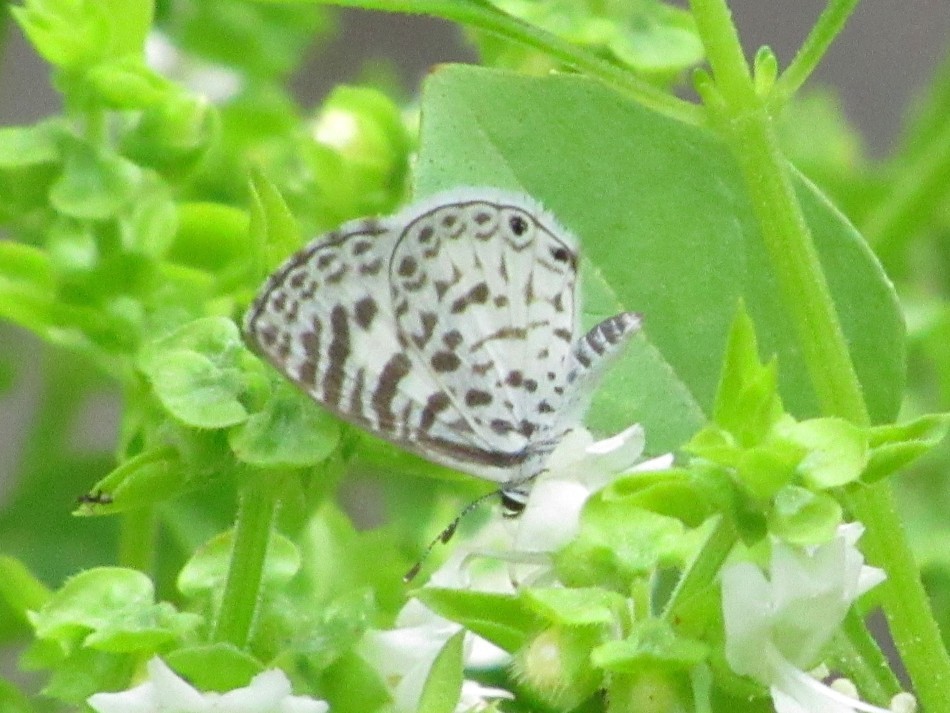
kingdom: Animalia
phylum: Arthropoda
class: Insecta
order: Lepidoptera
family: Lycaenidae
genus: Leptotes
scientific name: Leptotes cassius
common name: Cassius blue
